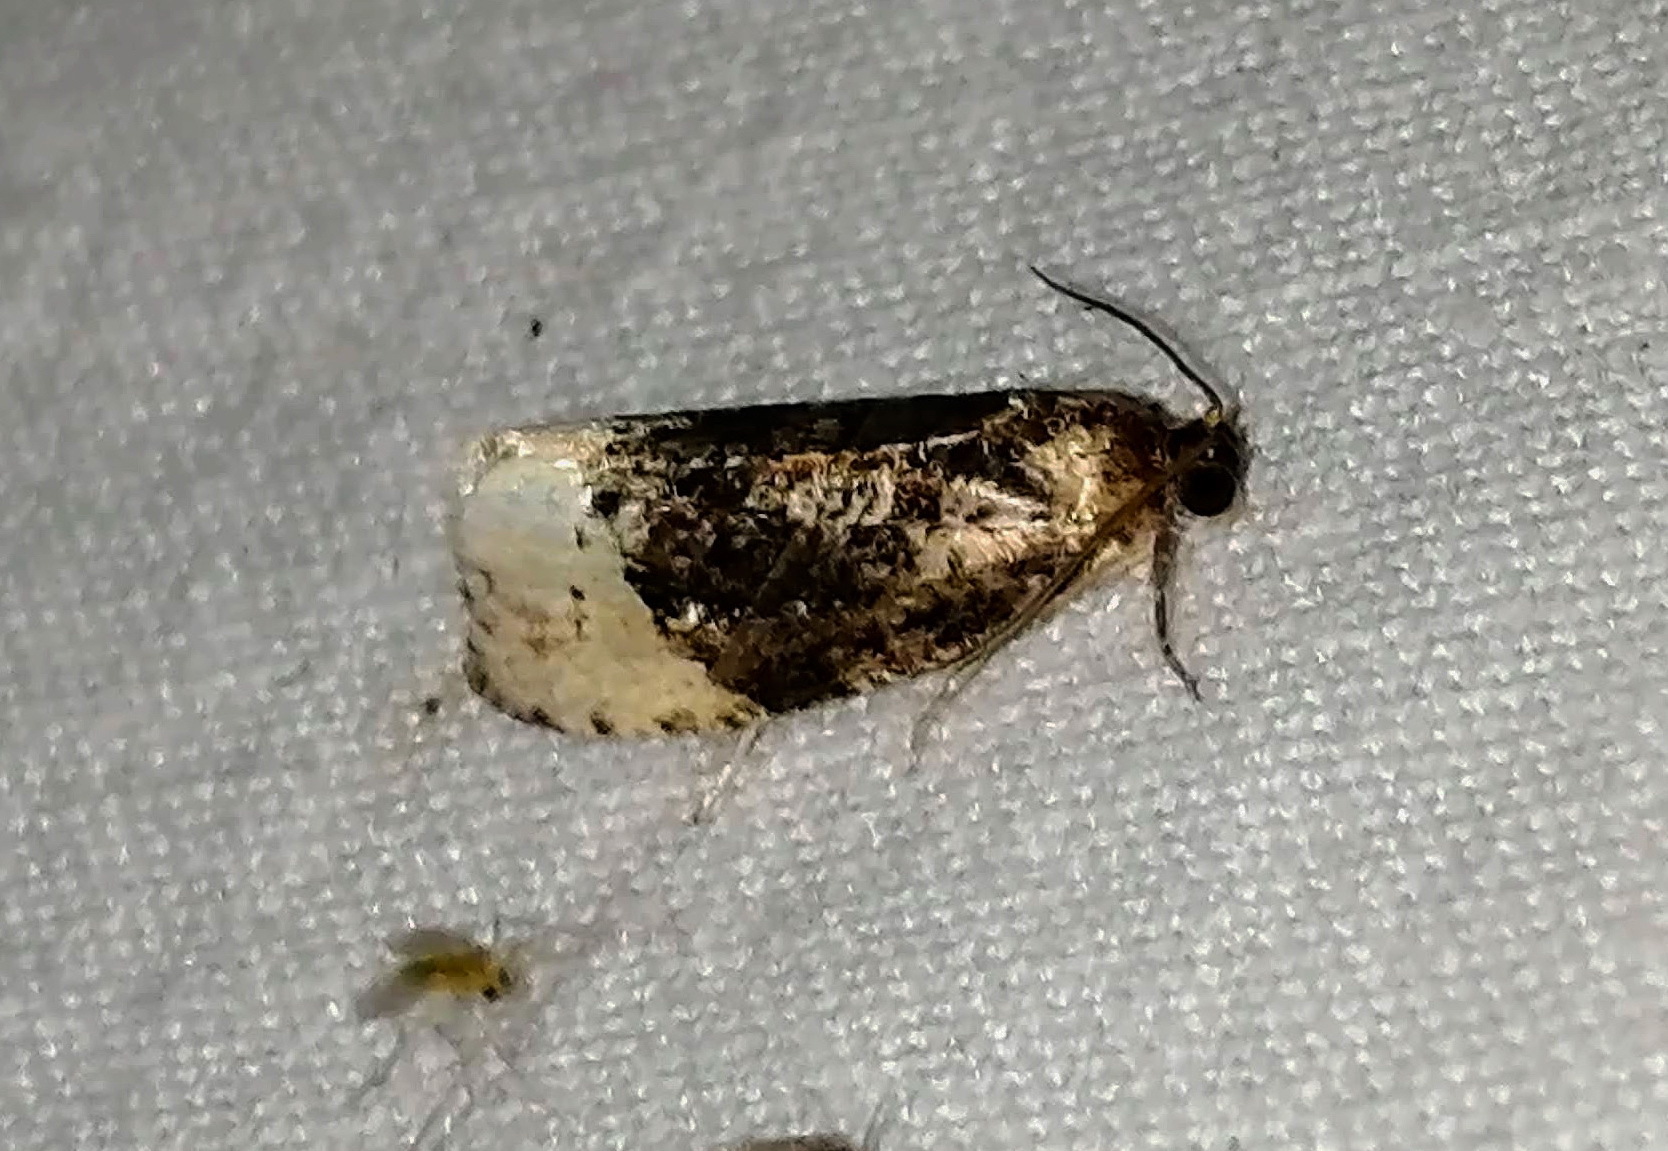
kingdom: Animalia
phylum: Arthropoda
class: Insecta
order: Lepidoptera
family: Tortricidae
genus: Hedya
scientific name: Hedya ochroleucana
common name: Buff-tipped marble
